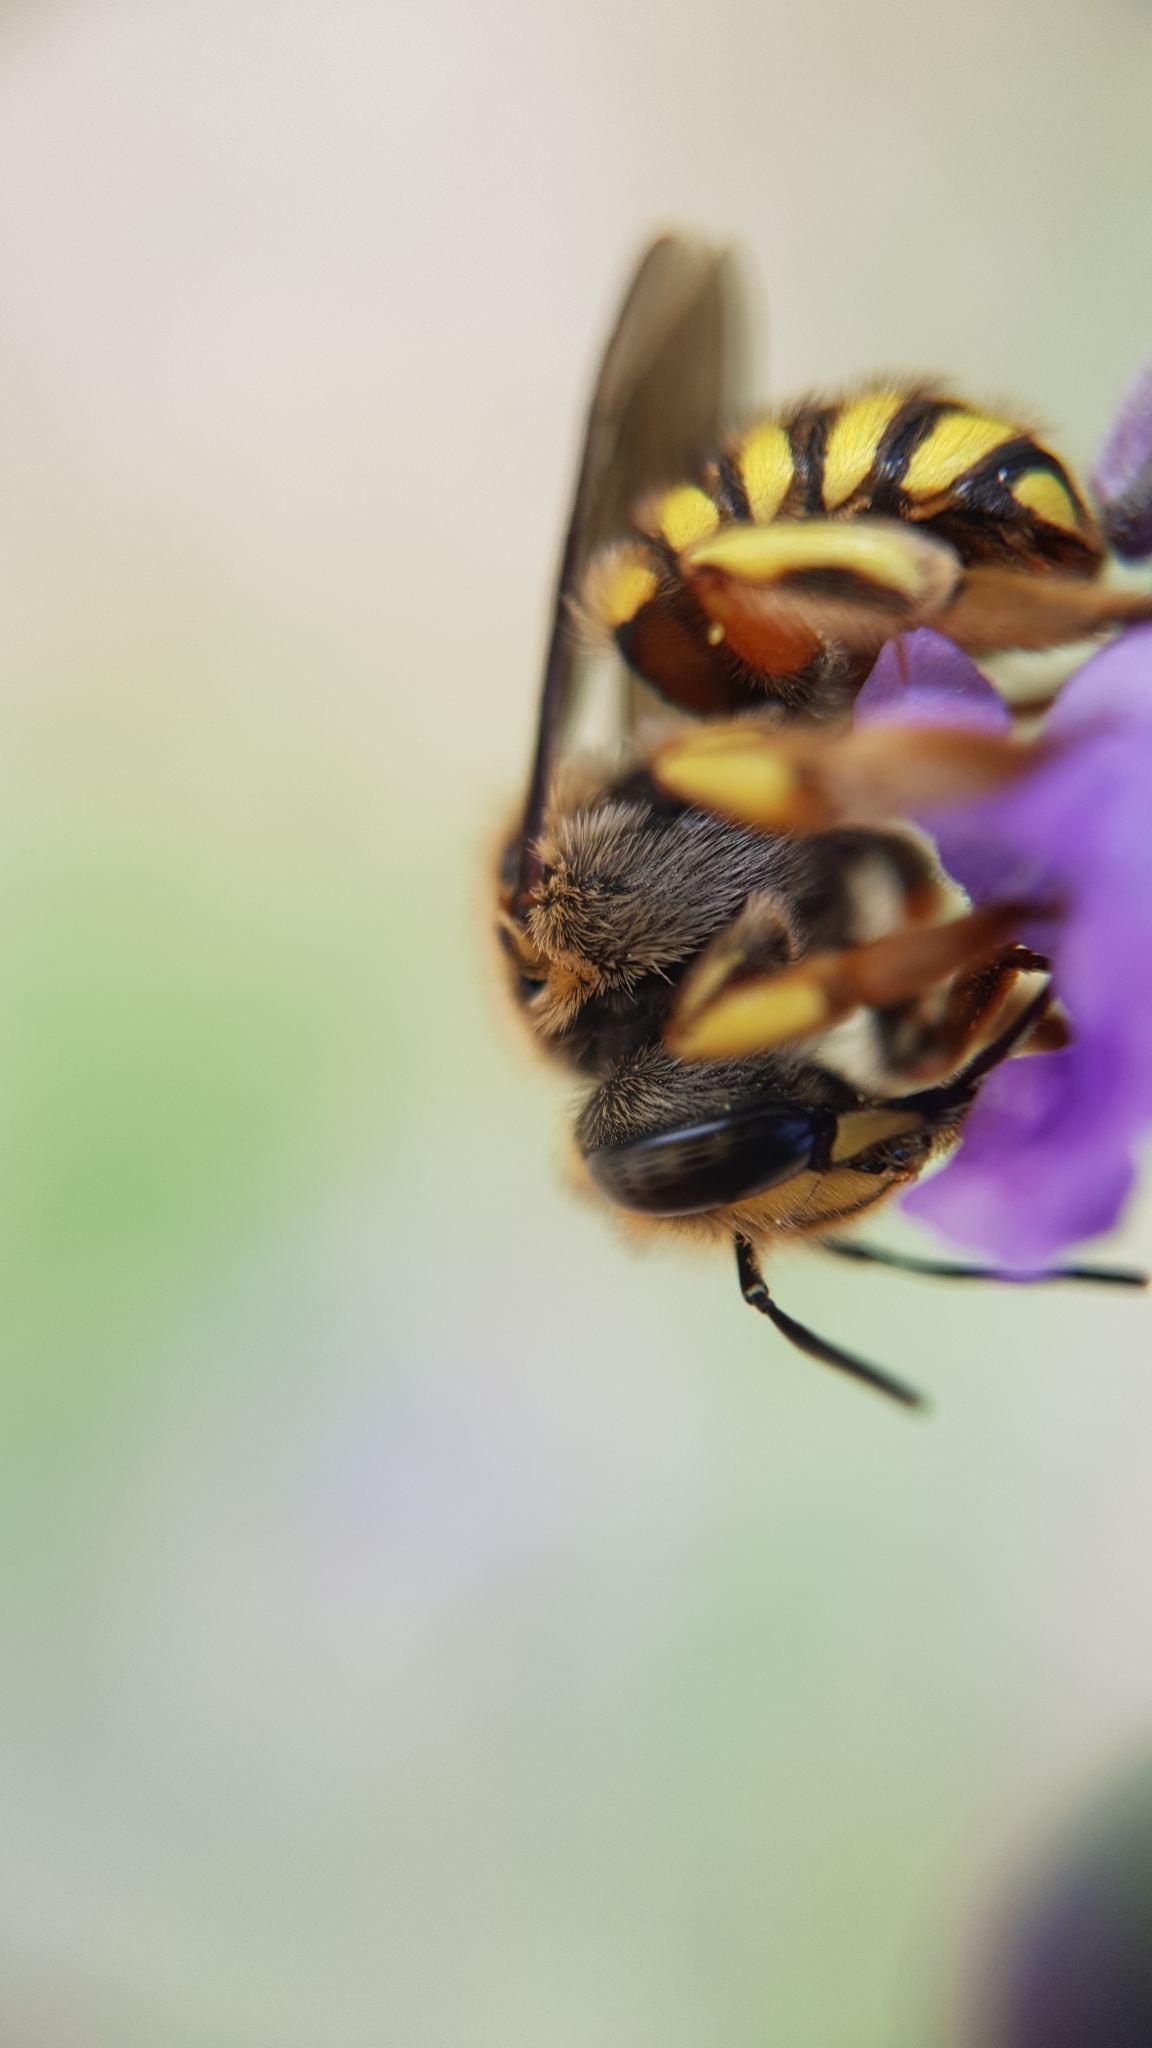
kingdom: Animalia
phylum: Arthropoda
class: Insecta
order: Hymenoptera
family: Megachilidae
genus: Anthidium
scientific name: Anthidium manicatum
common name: Wool carder bee
